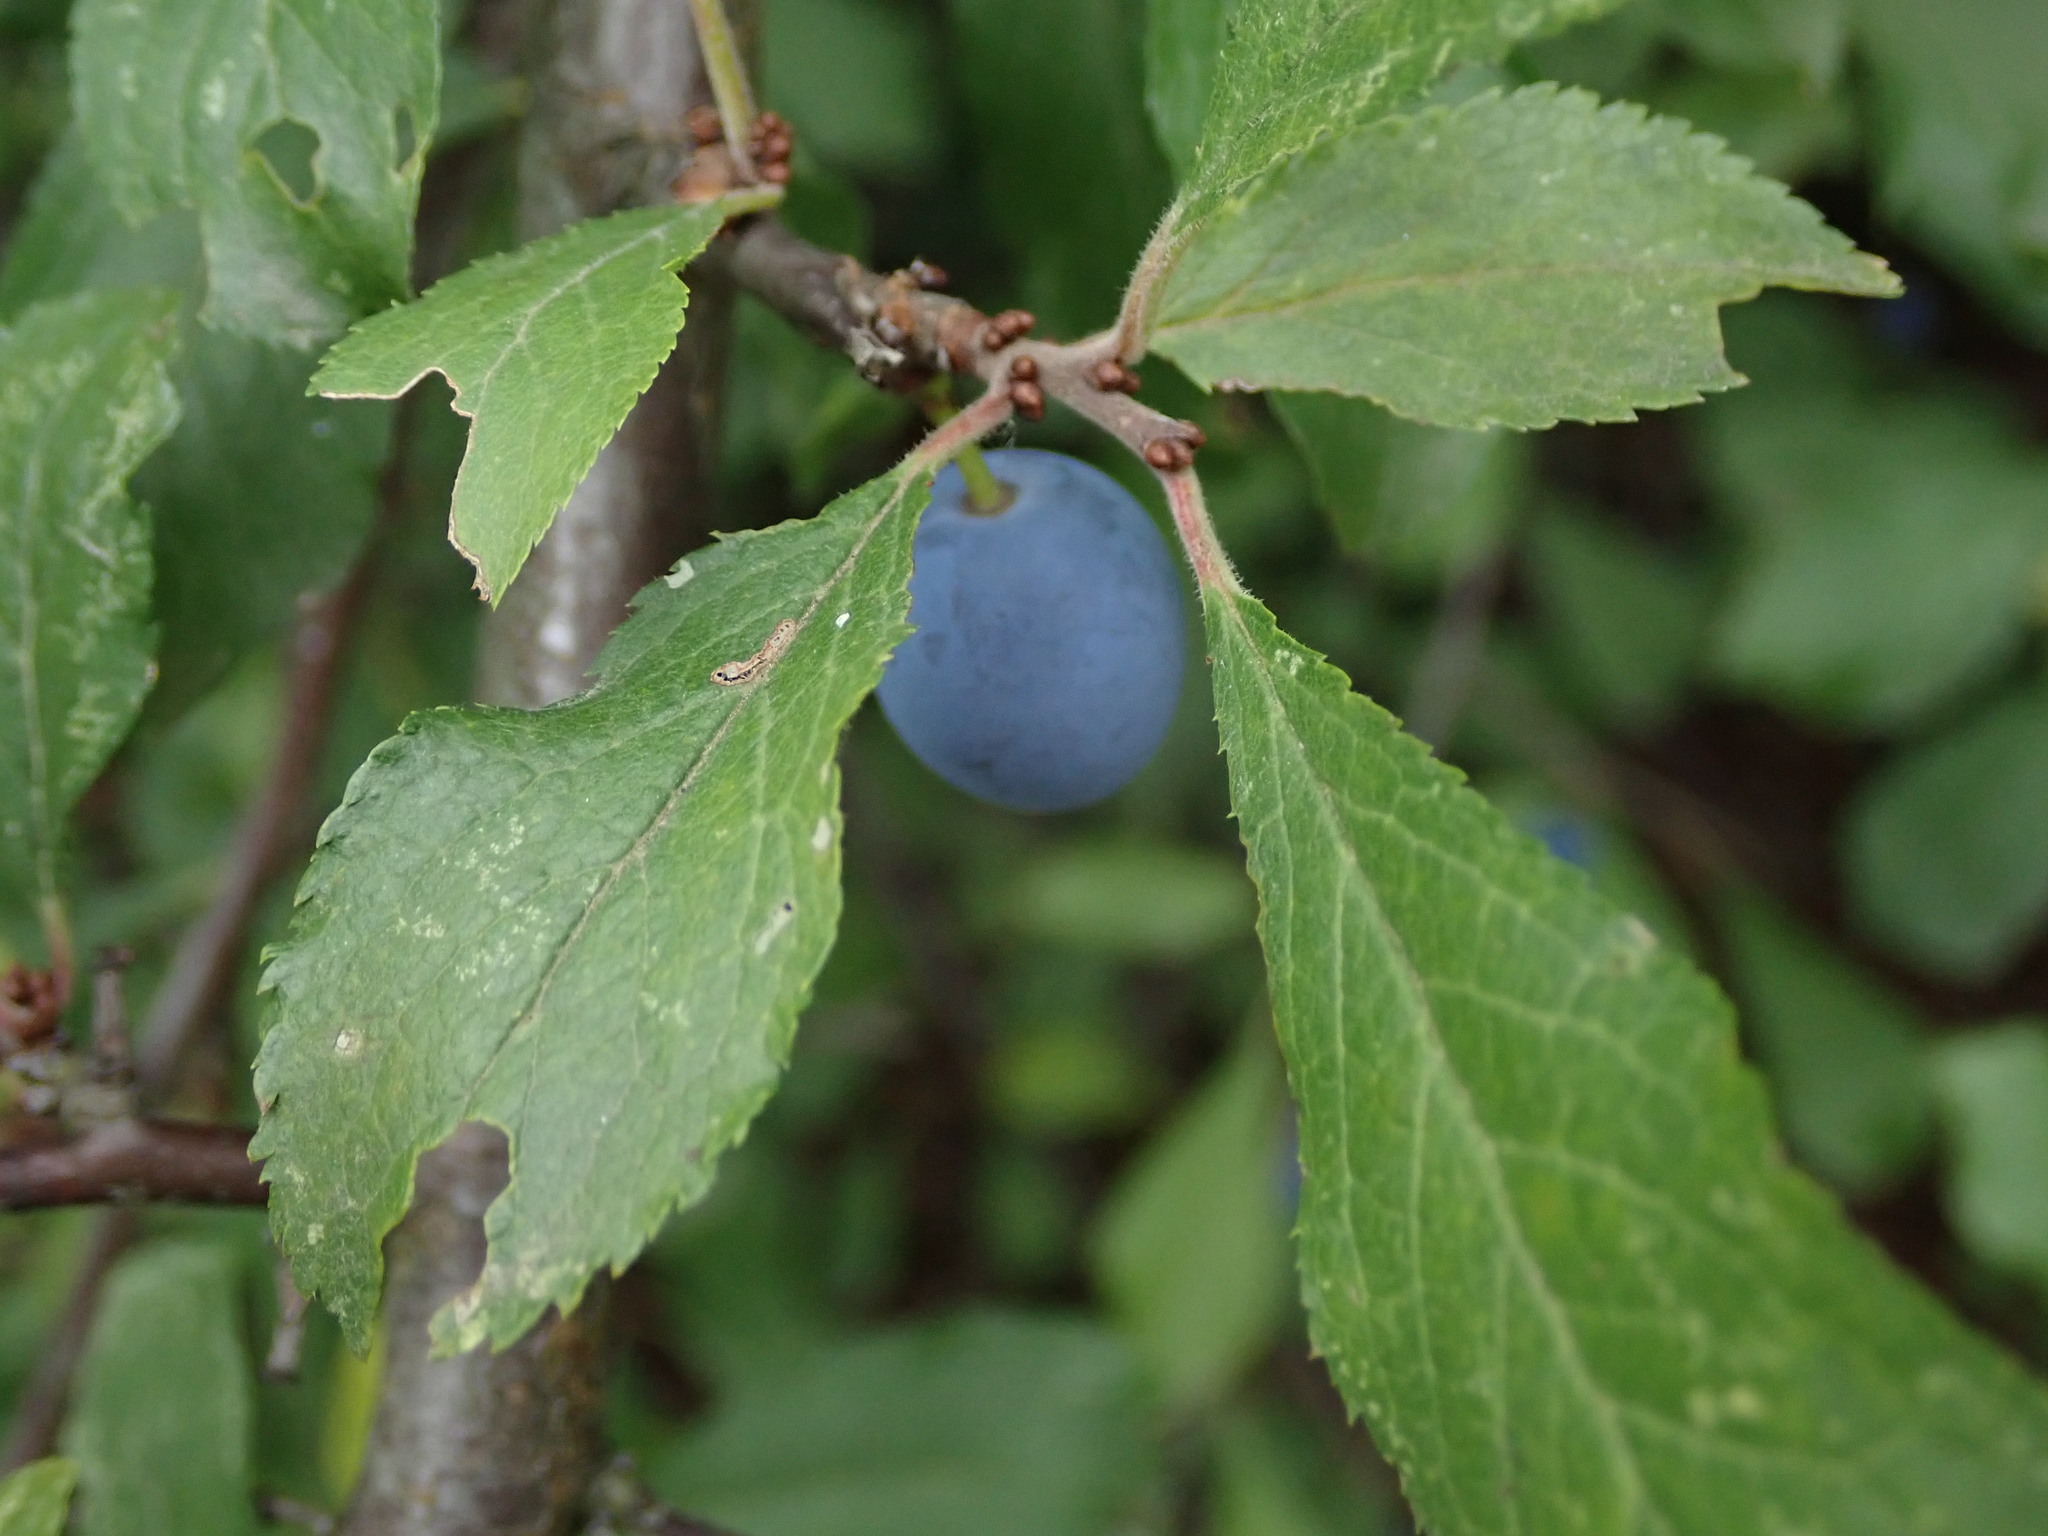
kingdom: Plantae
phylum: Tracheophyta
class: Magnoliopsida
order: Rosales
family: Rosaceae
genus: Prunus
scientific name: Prunus spinosa
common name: Blackthorn
